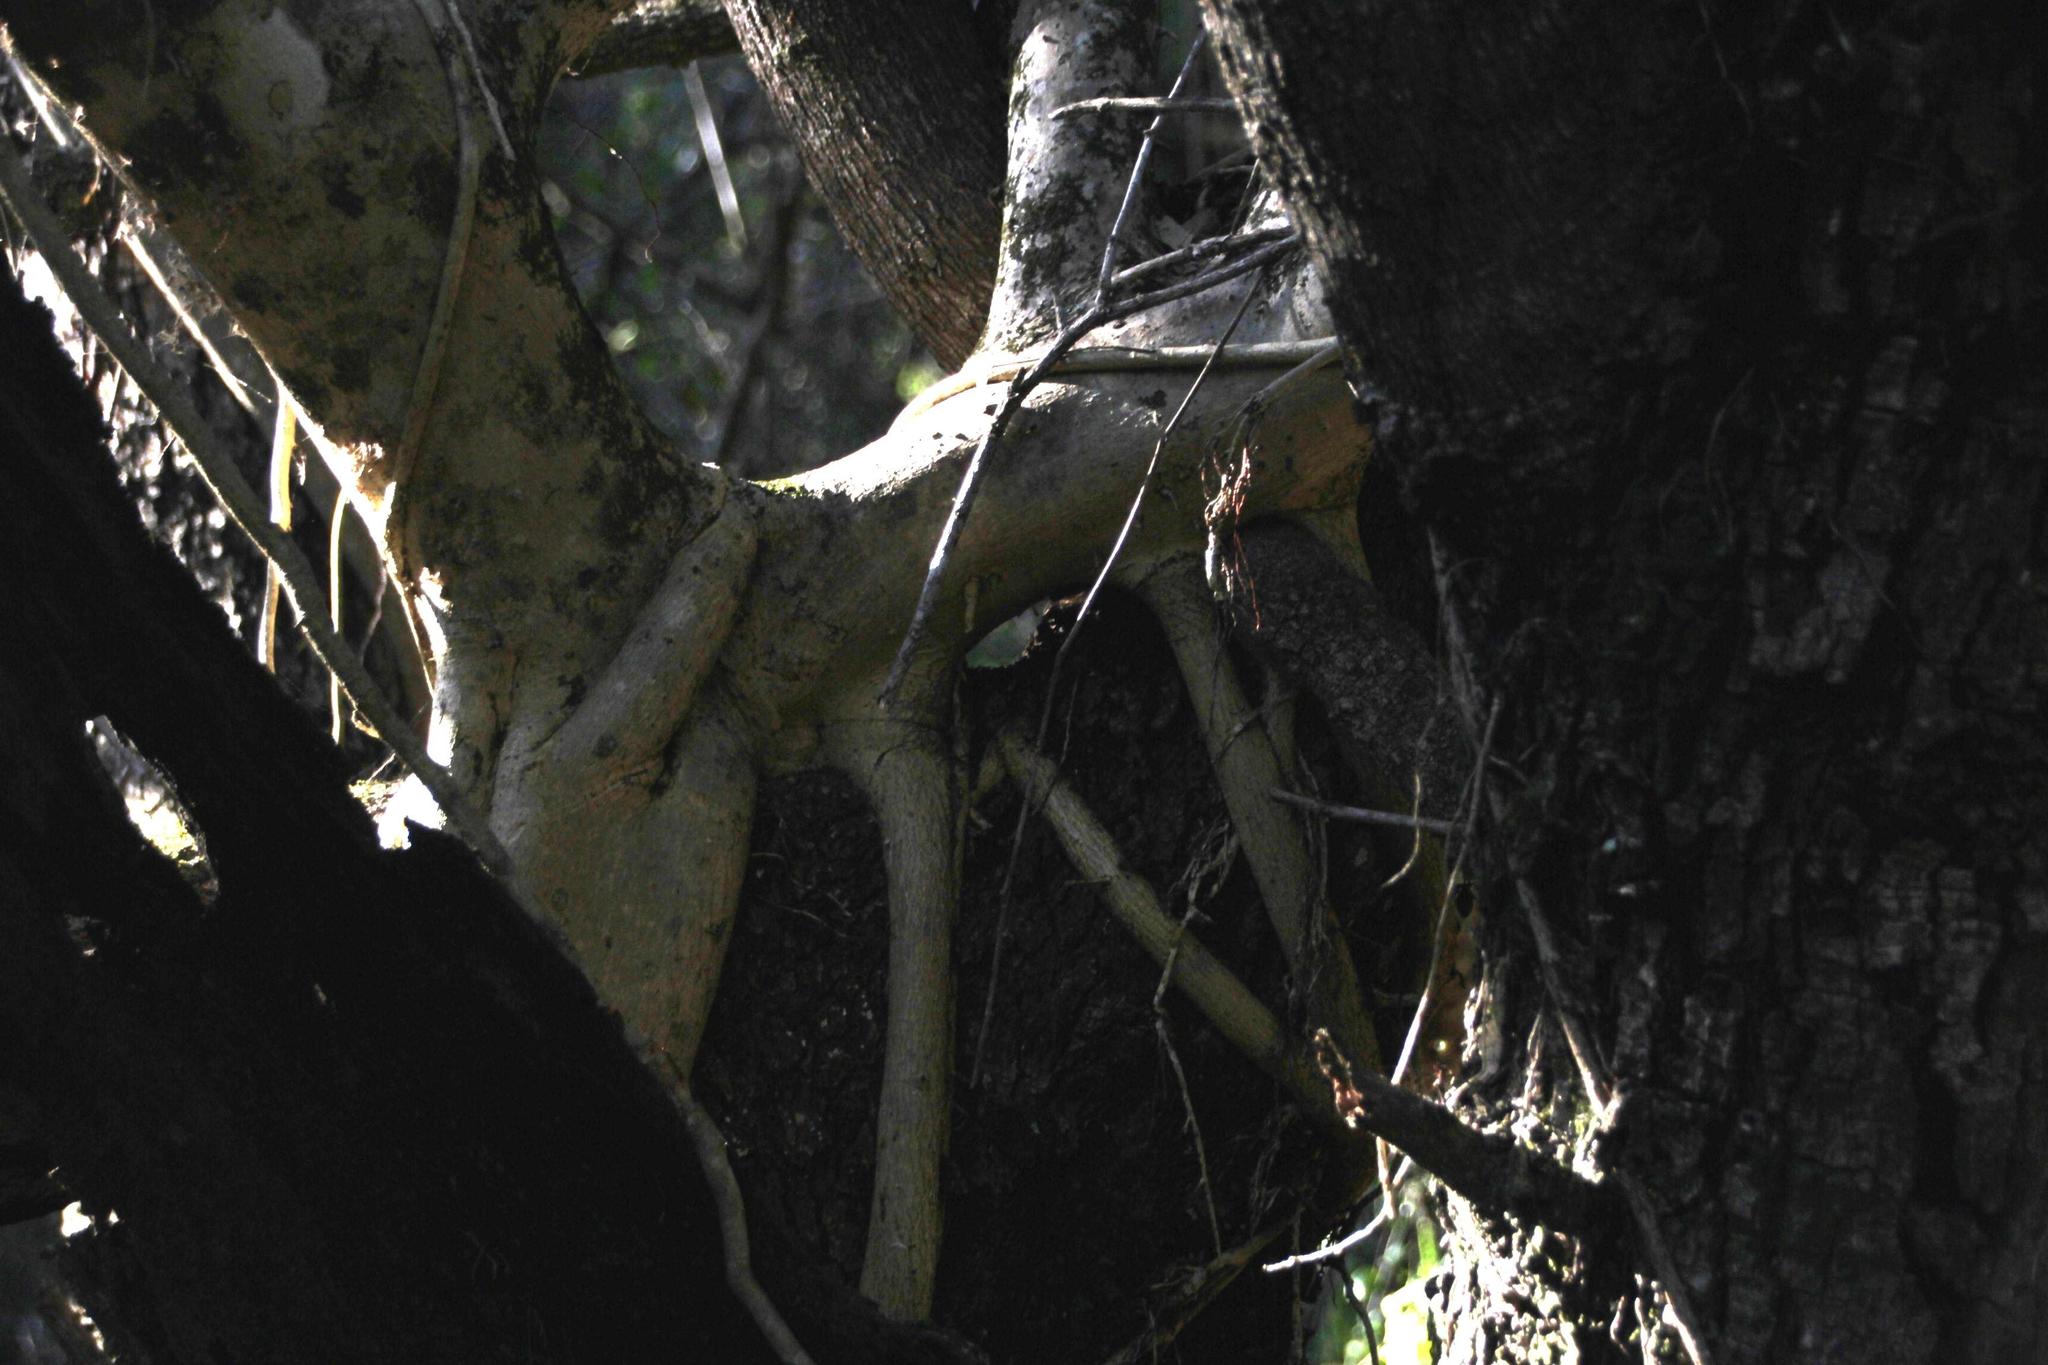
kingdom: Plantae
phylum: Tracheophyta
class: Magnoliopsida
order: Rosales
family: Moraceae
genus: Ficus
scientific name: Ficus burtt-davyi
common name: Scrambling fig
